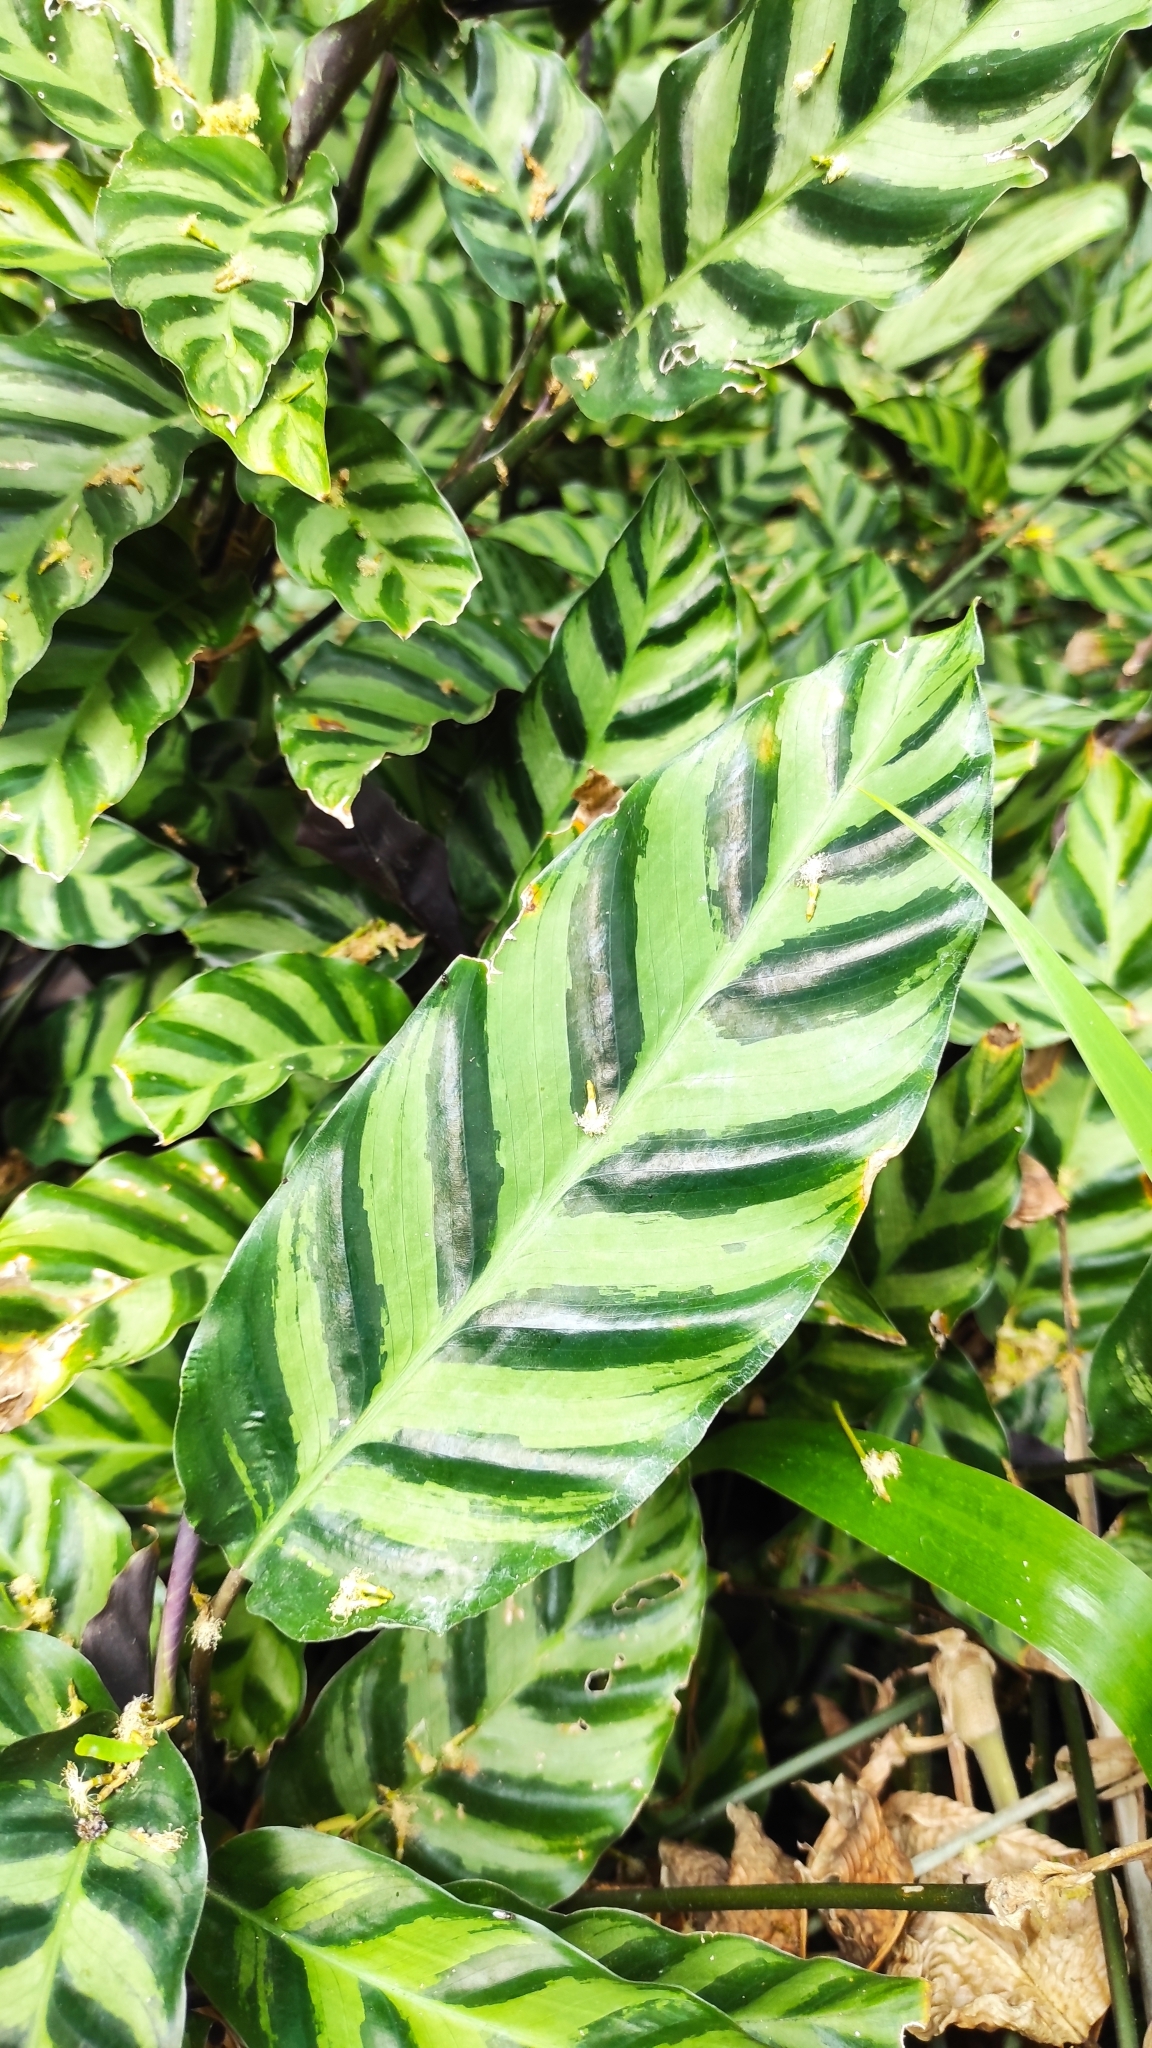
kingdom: Plantae
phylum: Tracheophyta
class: Liliopsida
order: Zingiberales
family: Marantaceae
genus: Goeppertia
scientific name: Goeppertia lietzei
